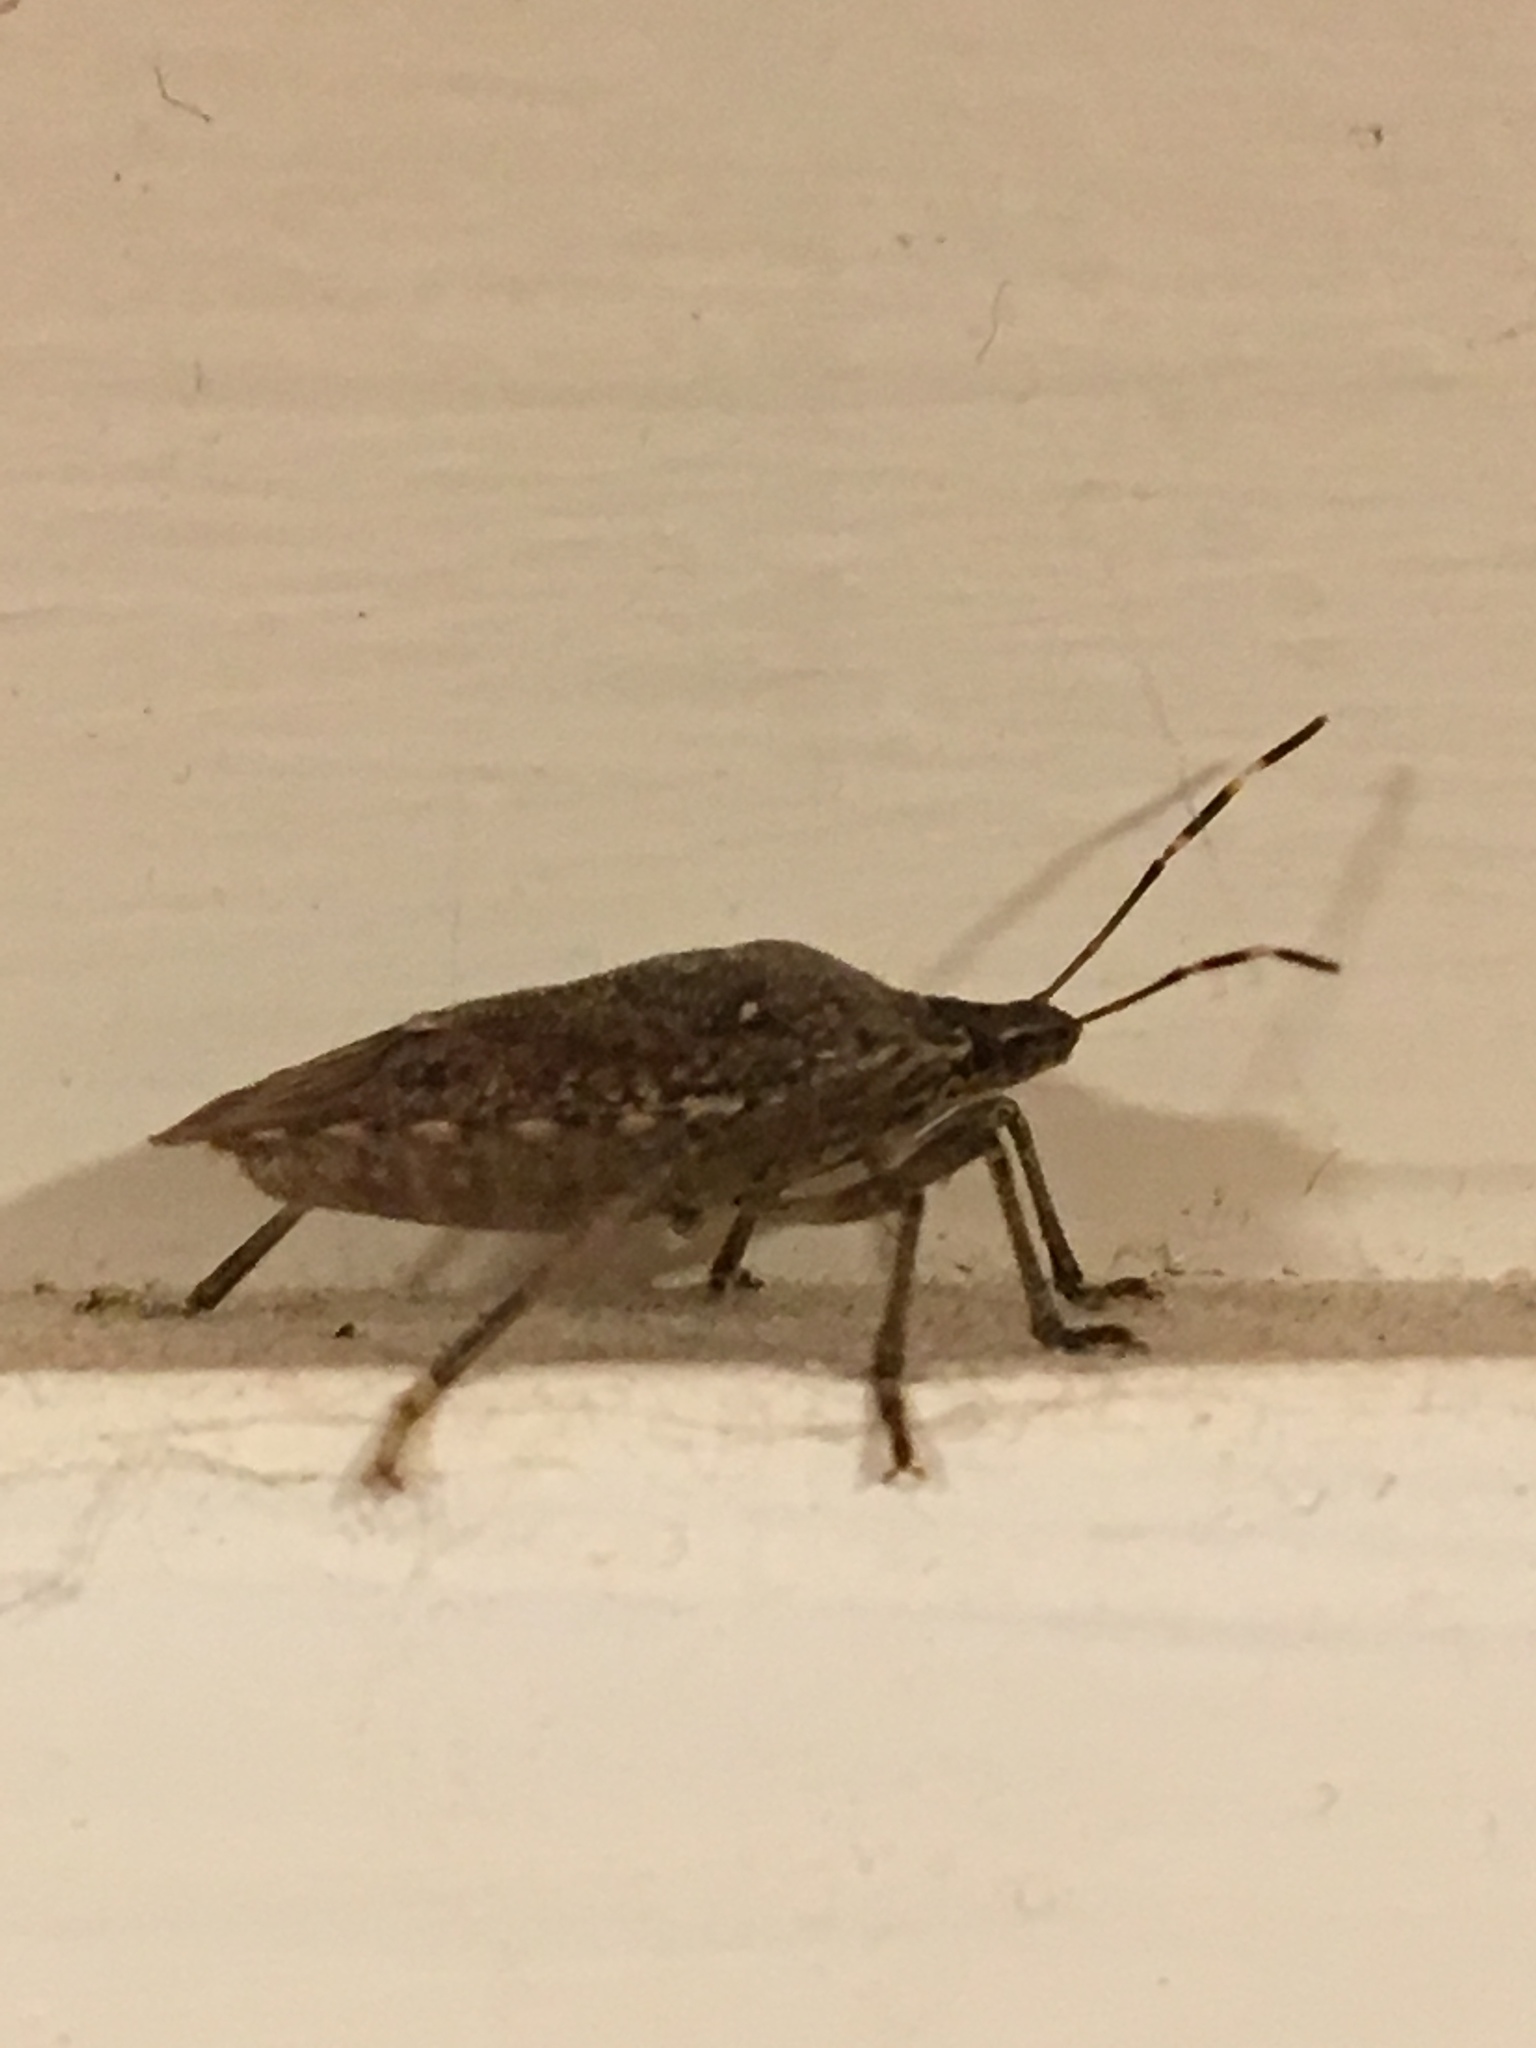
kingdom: Animalia
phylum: Arthropoda
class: Insecta
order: Hemiptera
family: Pentatomidae
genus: Halyomorpha
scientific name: Halyomorpha halys
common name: Brown marmorated stink bug
